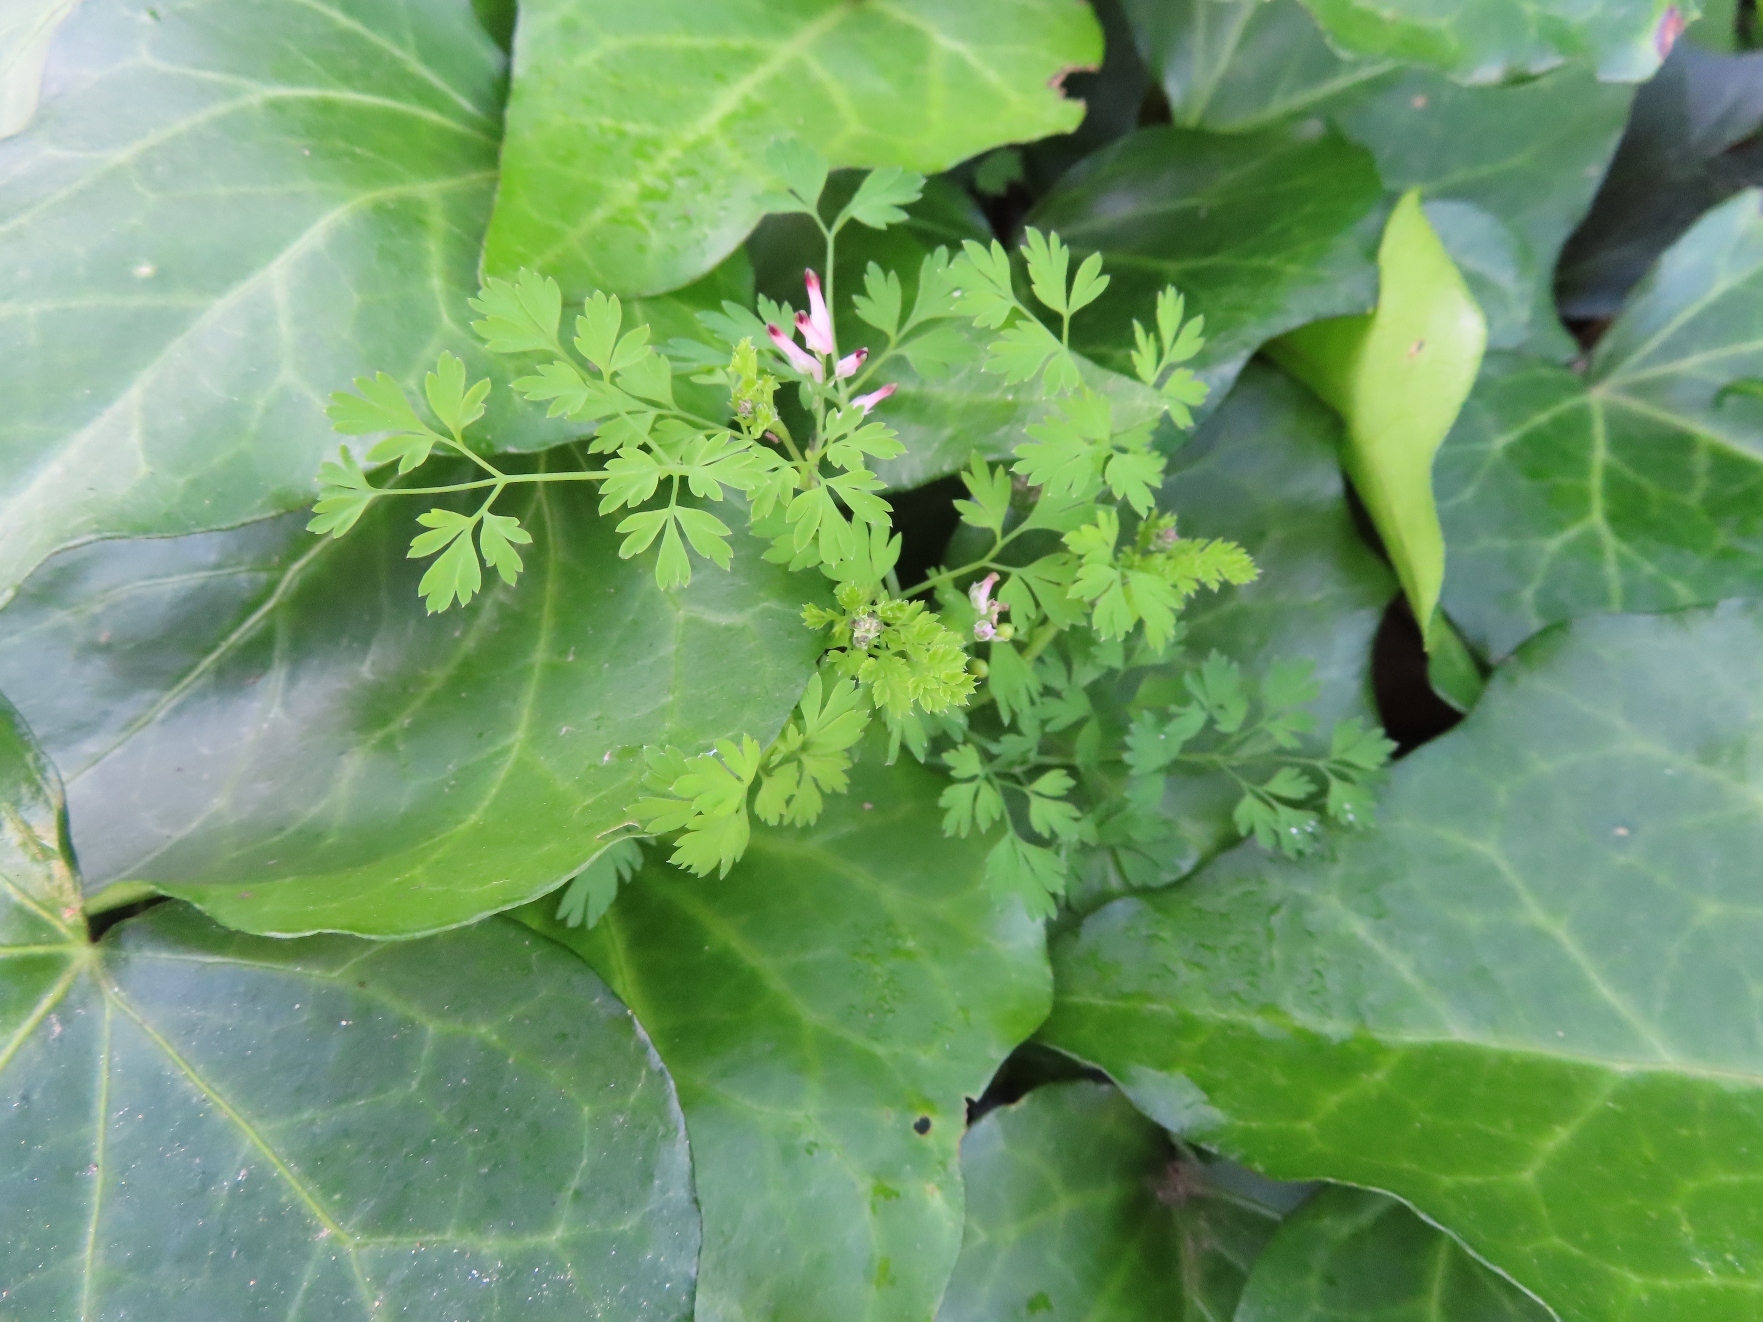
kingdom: Plantae
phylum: Tracheophyta
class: Magnoliopsida
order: Ranunculales
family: Papaveraceae
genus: Fumaria
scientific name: Fumaria muralis
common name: Common ramping-fumitory
